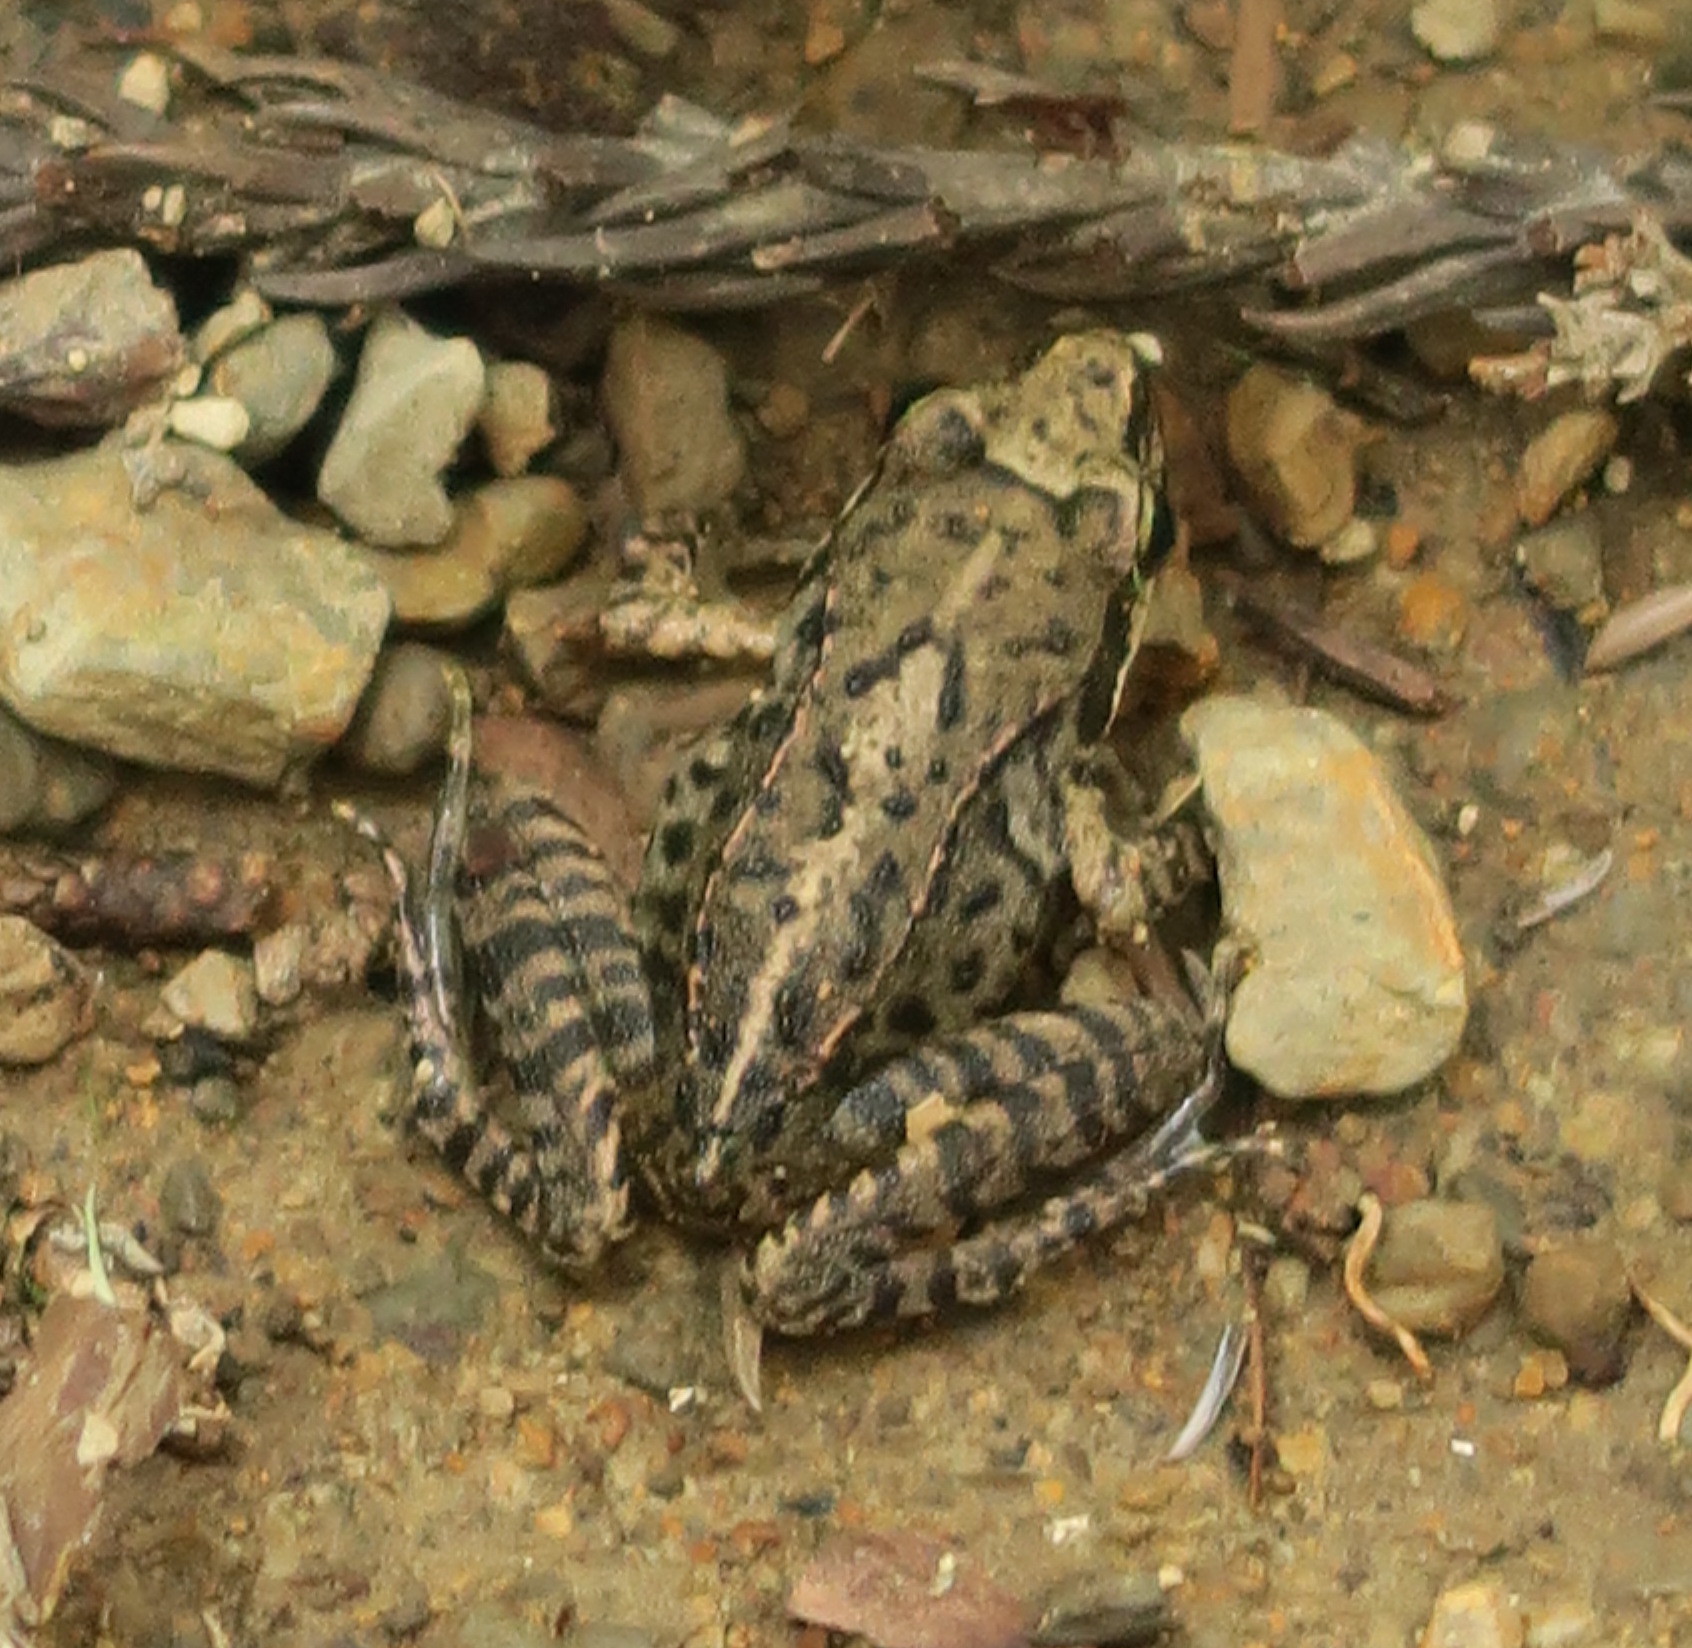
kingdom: Animalia
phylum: Chordata
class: Amphibia
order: Anura
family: Ranidae
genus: Rana
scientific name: Rana ornativentris
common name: Montane brown frog
